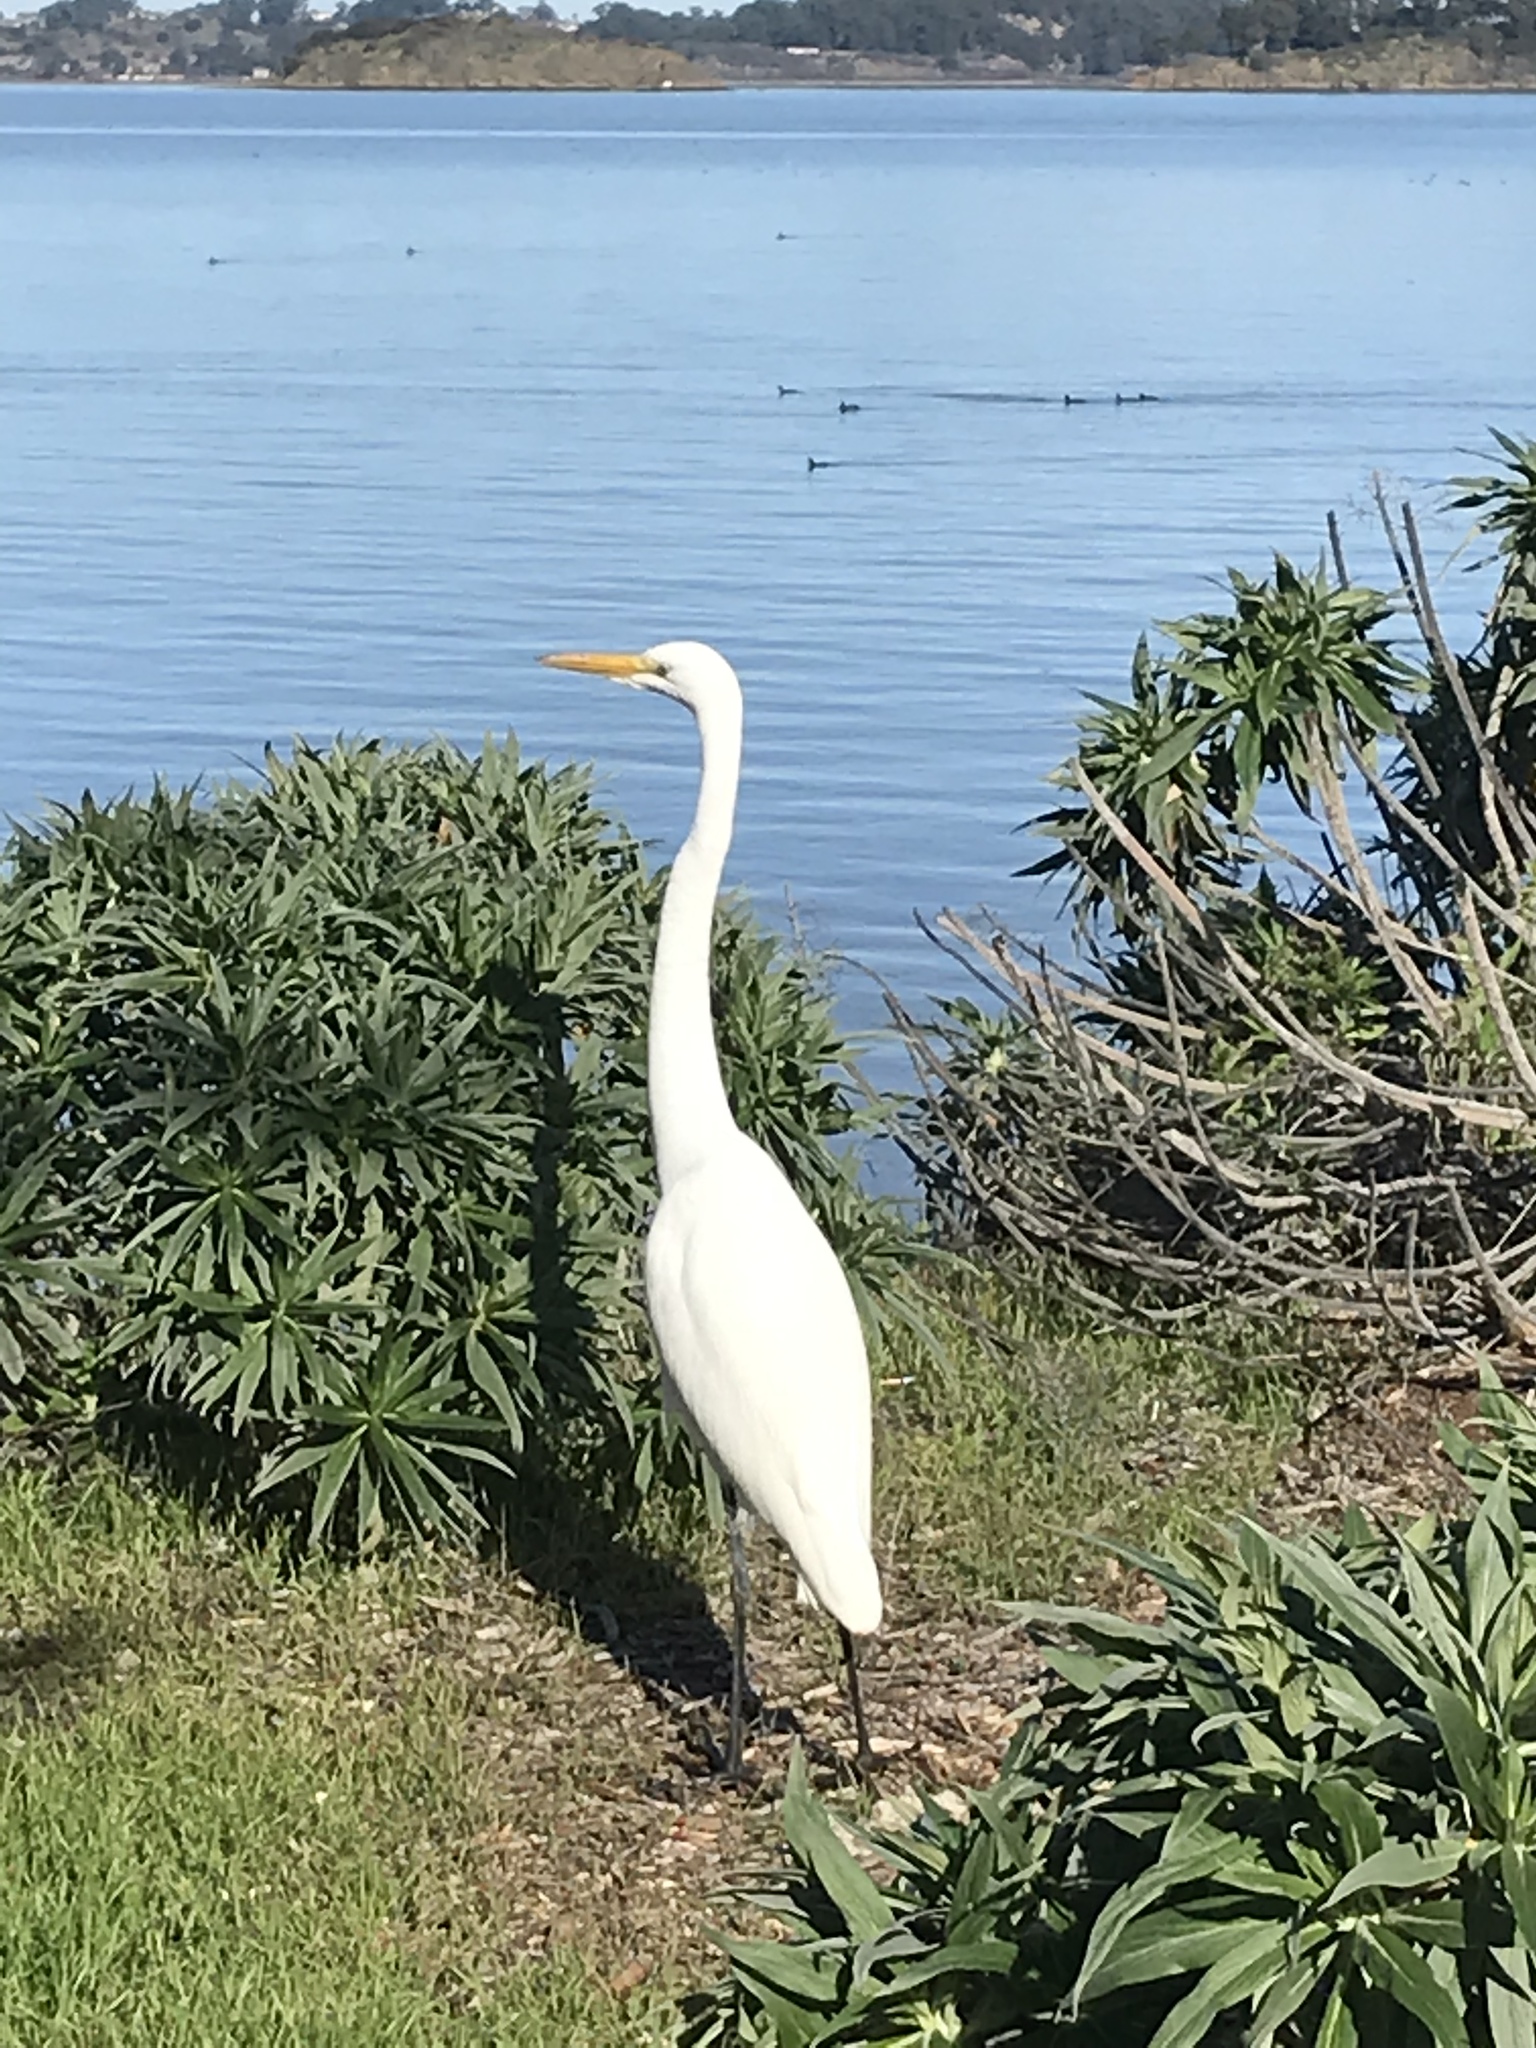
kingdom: Animalia
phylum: Chordata
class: Aves
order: Pelecaniformes
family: Ardeidae
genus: Ardea
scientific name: Ardea alba
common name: Great egret
